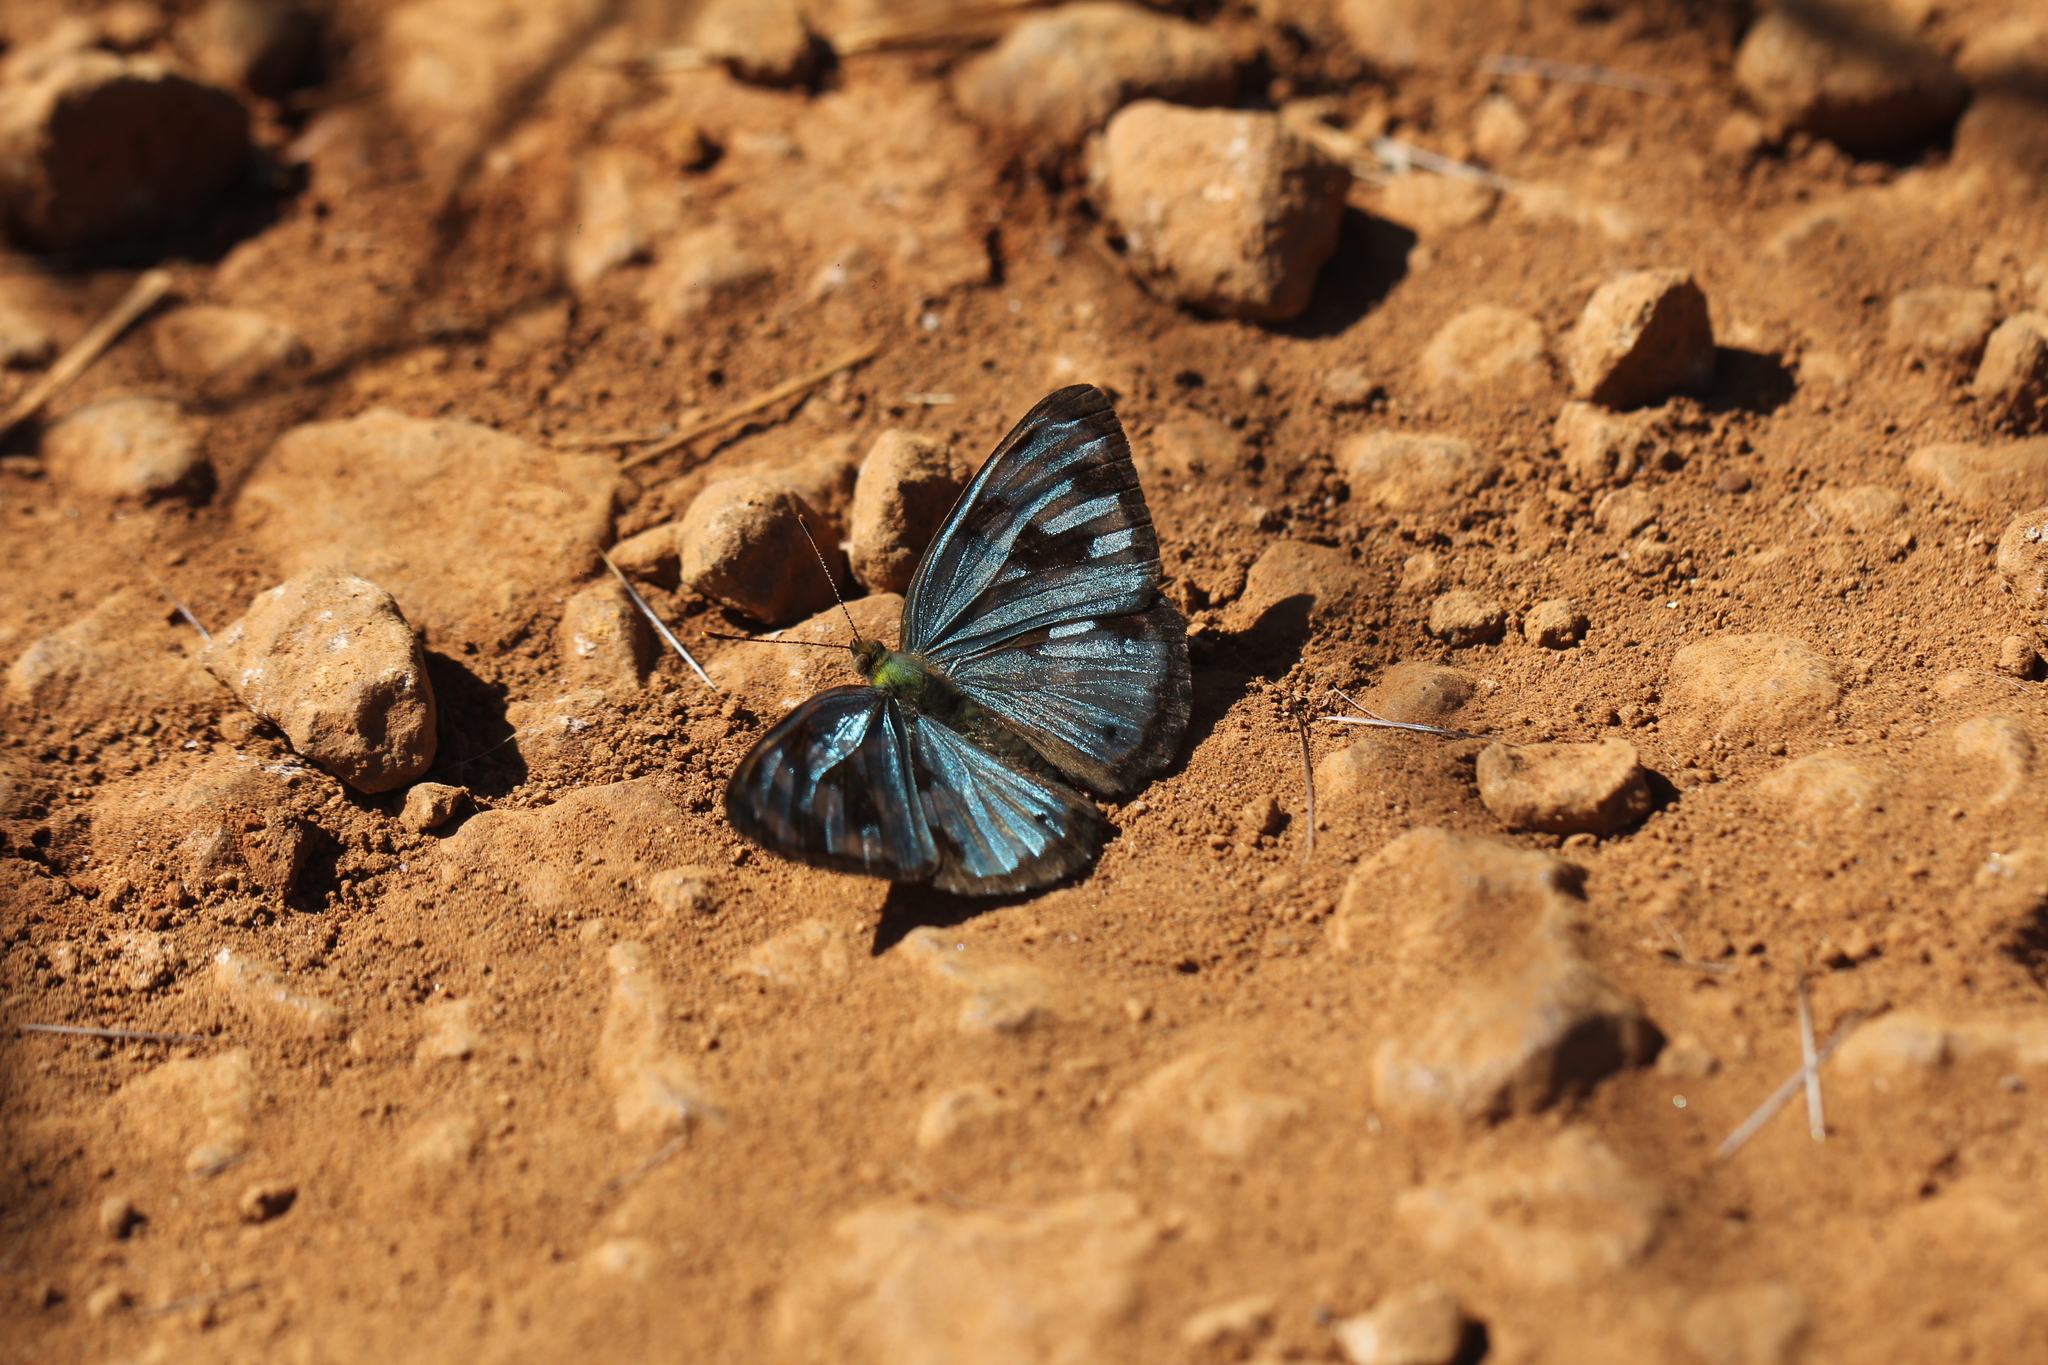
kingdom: Animalia
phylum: Arthropoda
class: Insecta
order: Lepidoptera
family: Nymphalidae
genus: Dynamine
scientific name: Dynamine mylitta
